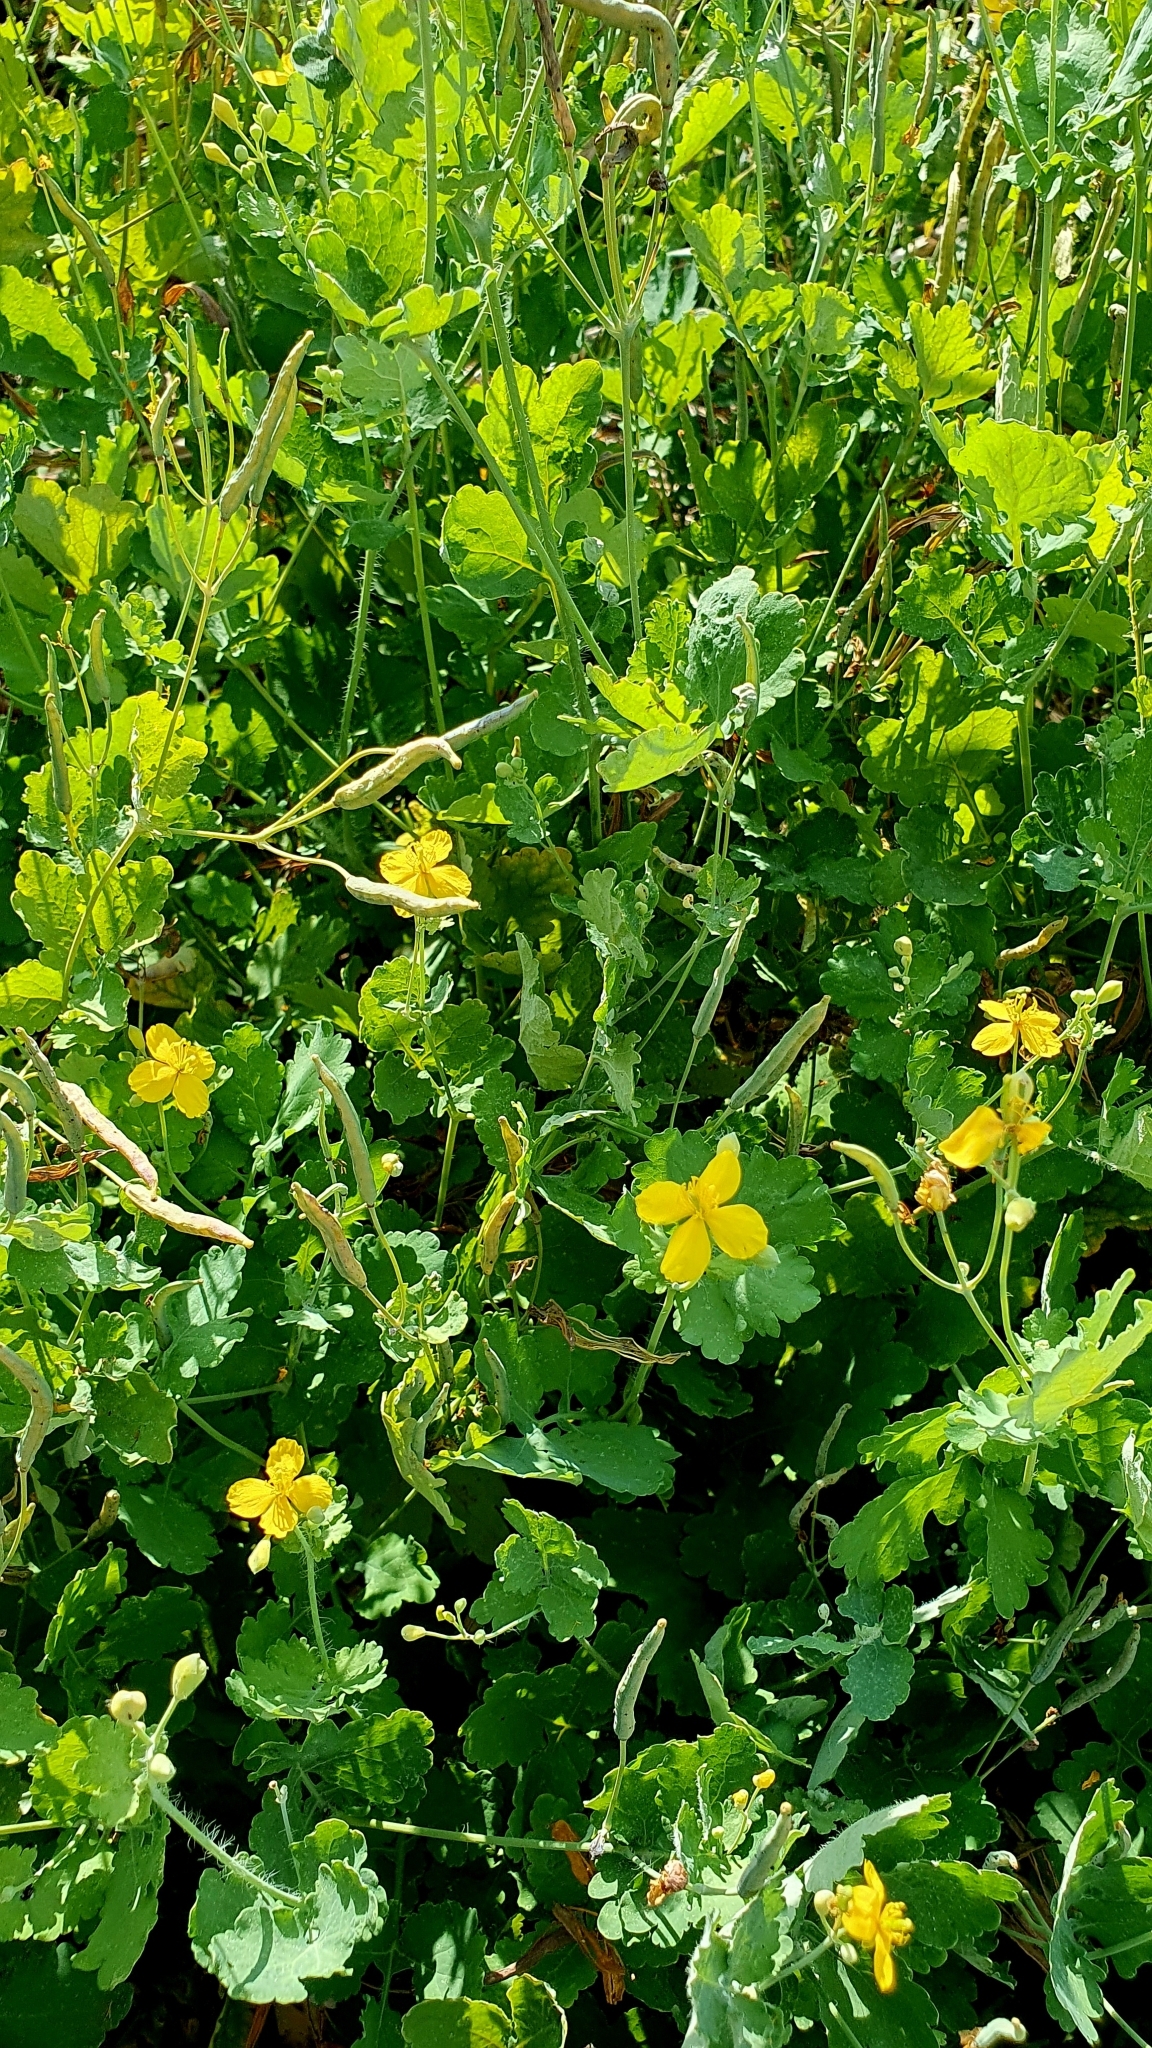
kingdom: Plantae
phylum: Tracheophyta
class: Magnoliopsida
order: Ranunculales
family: Papaveraceae
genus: Chelidonium
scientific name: Chelidonium majus
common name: Greater celandine
